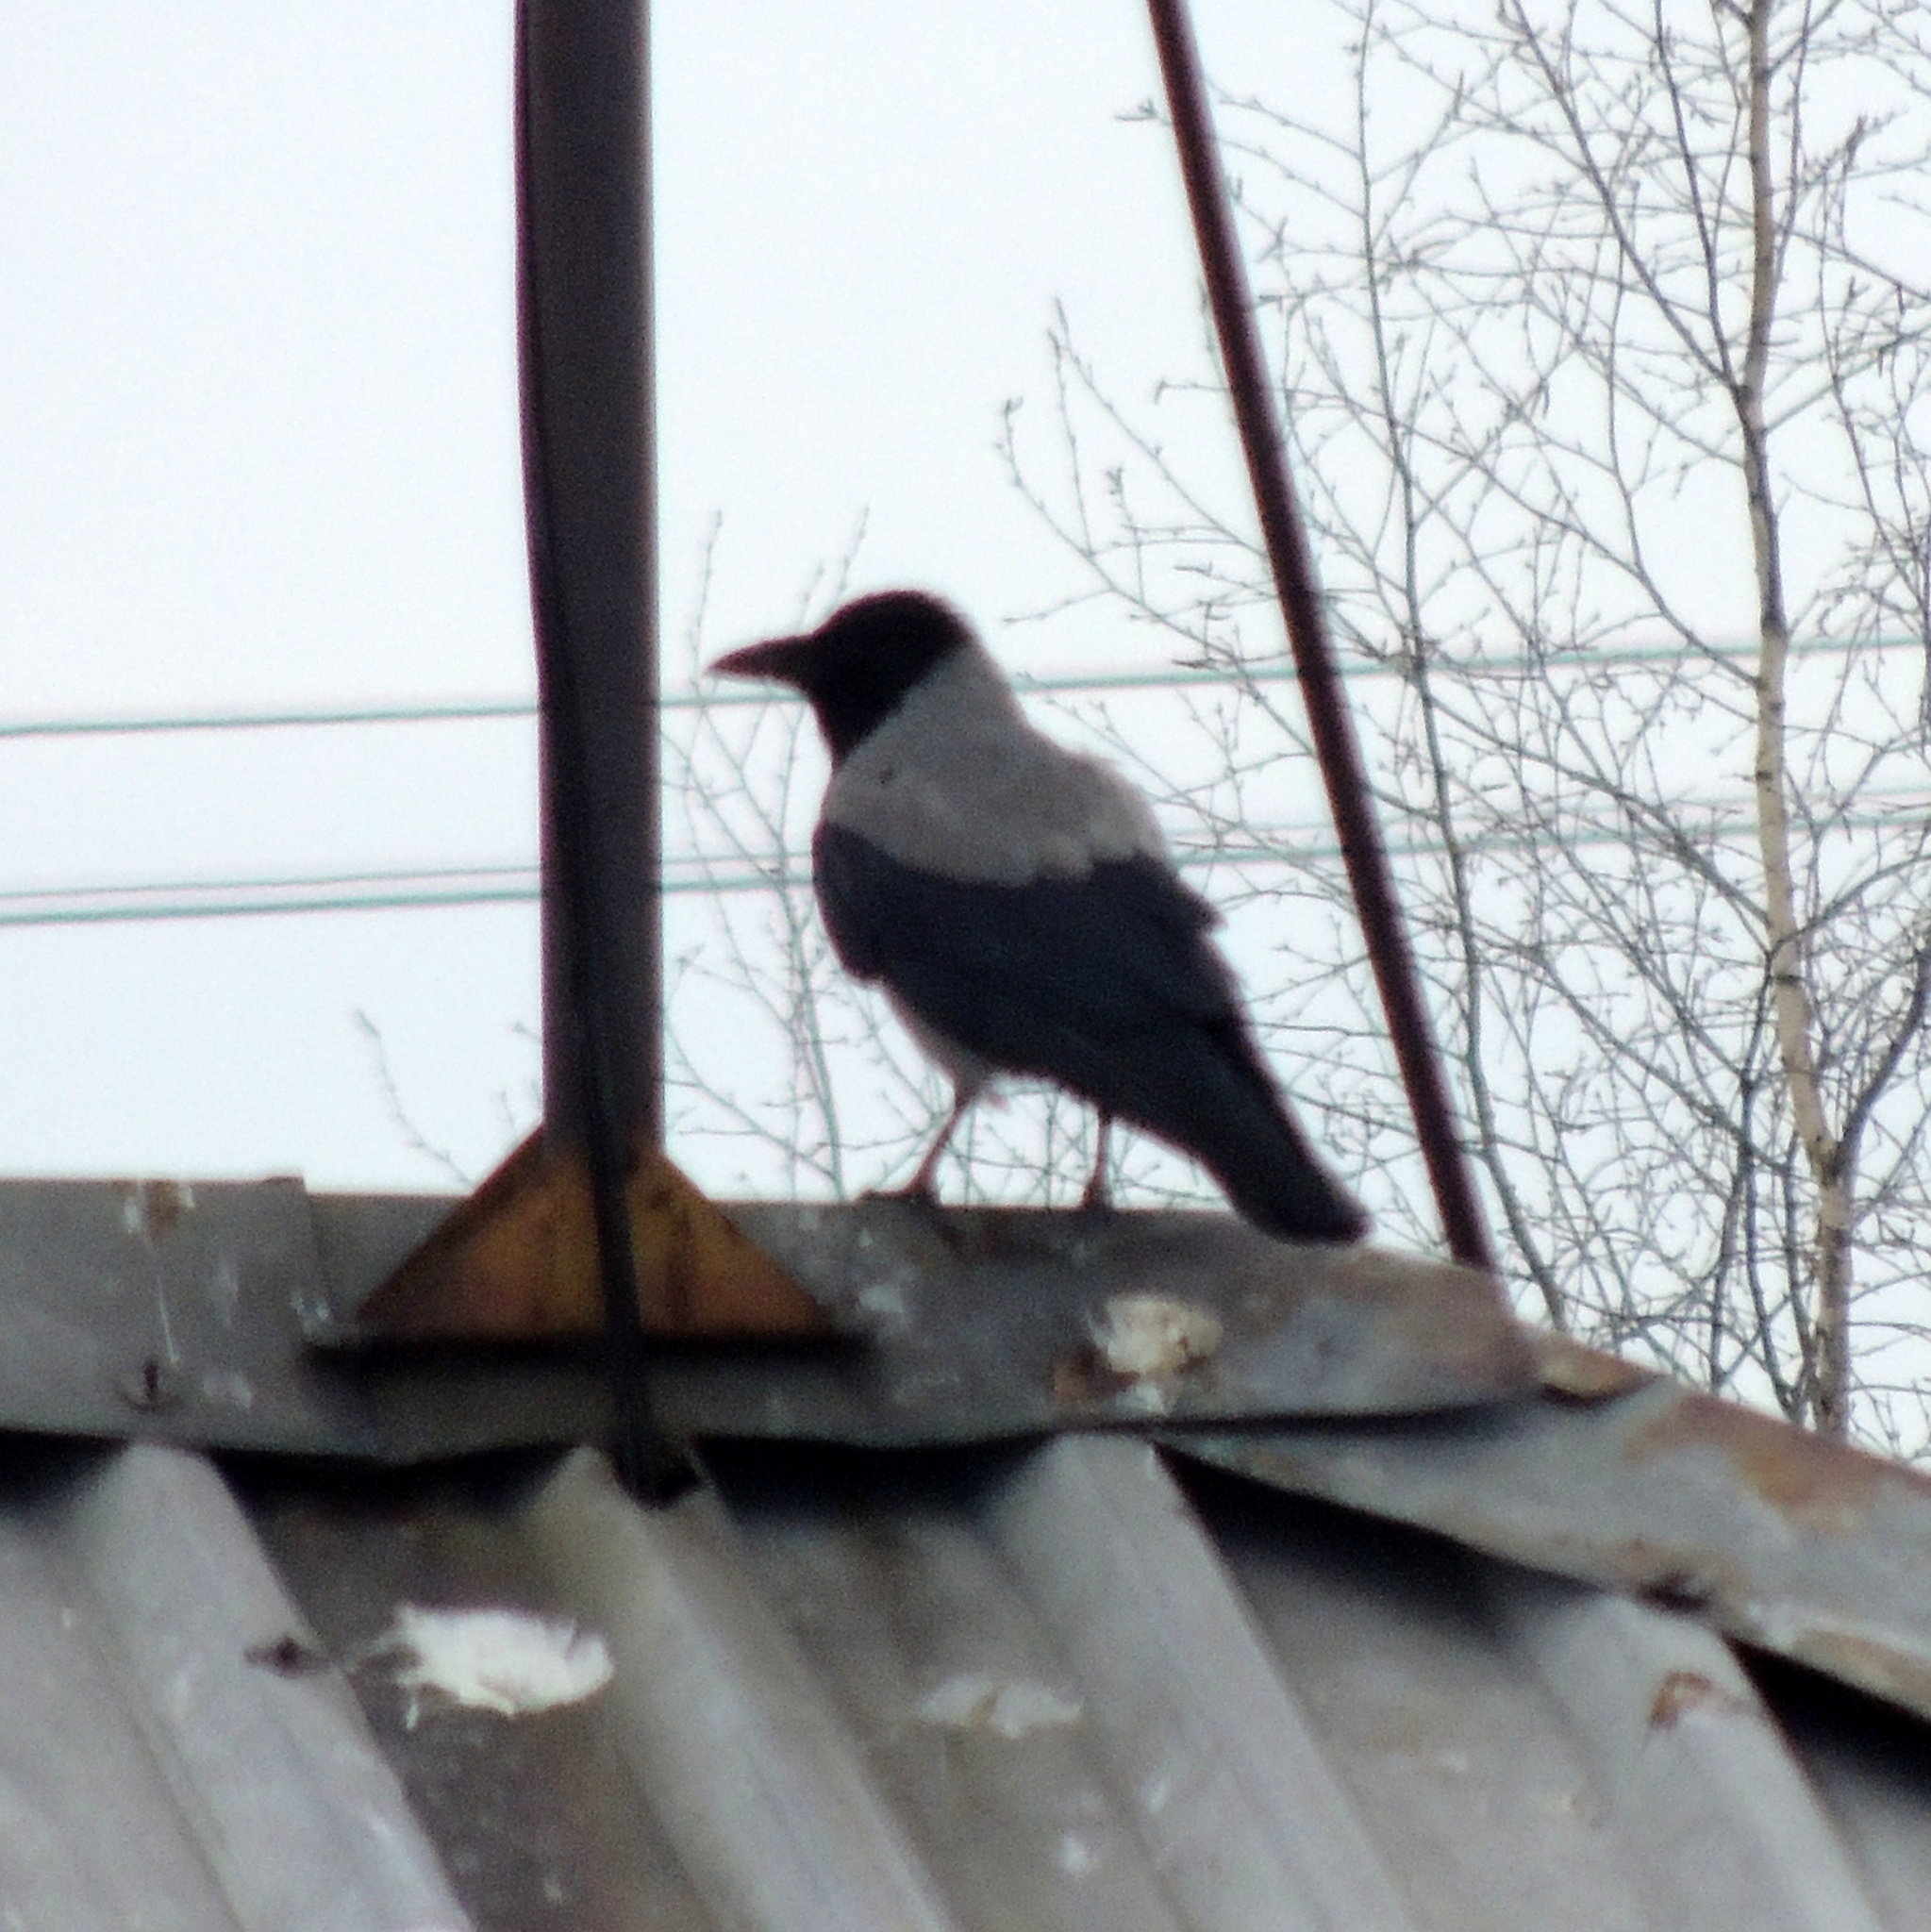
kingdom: Animalia
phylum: Chordata
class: Aves
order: Passeriformes
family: Corvidae
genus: Corvus
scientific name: Corvus cornix
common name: Hooded crow
